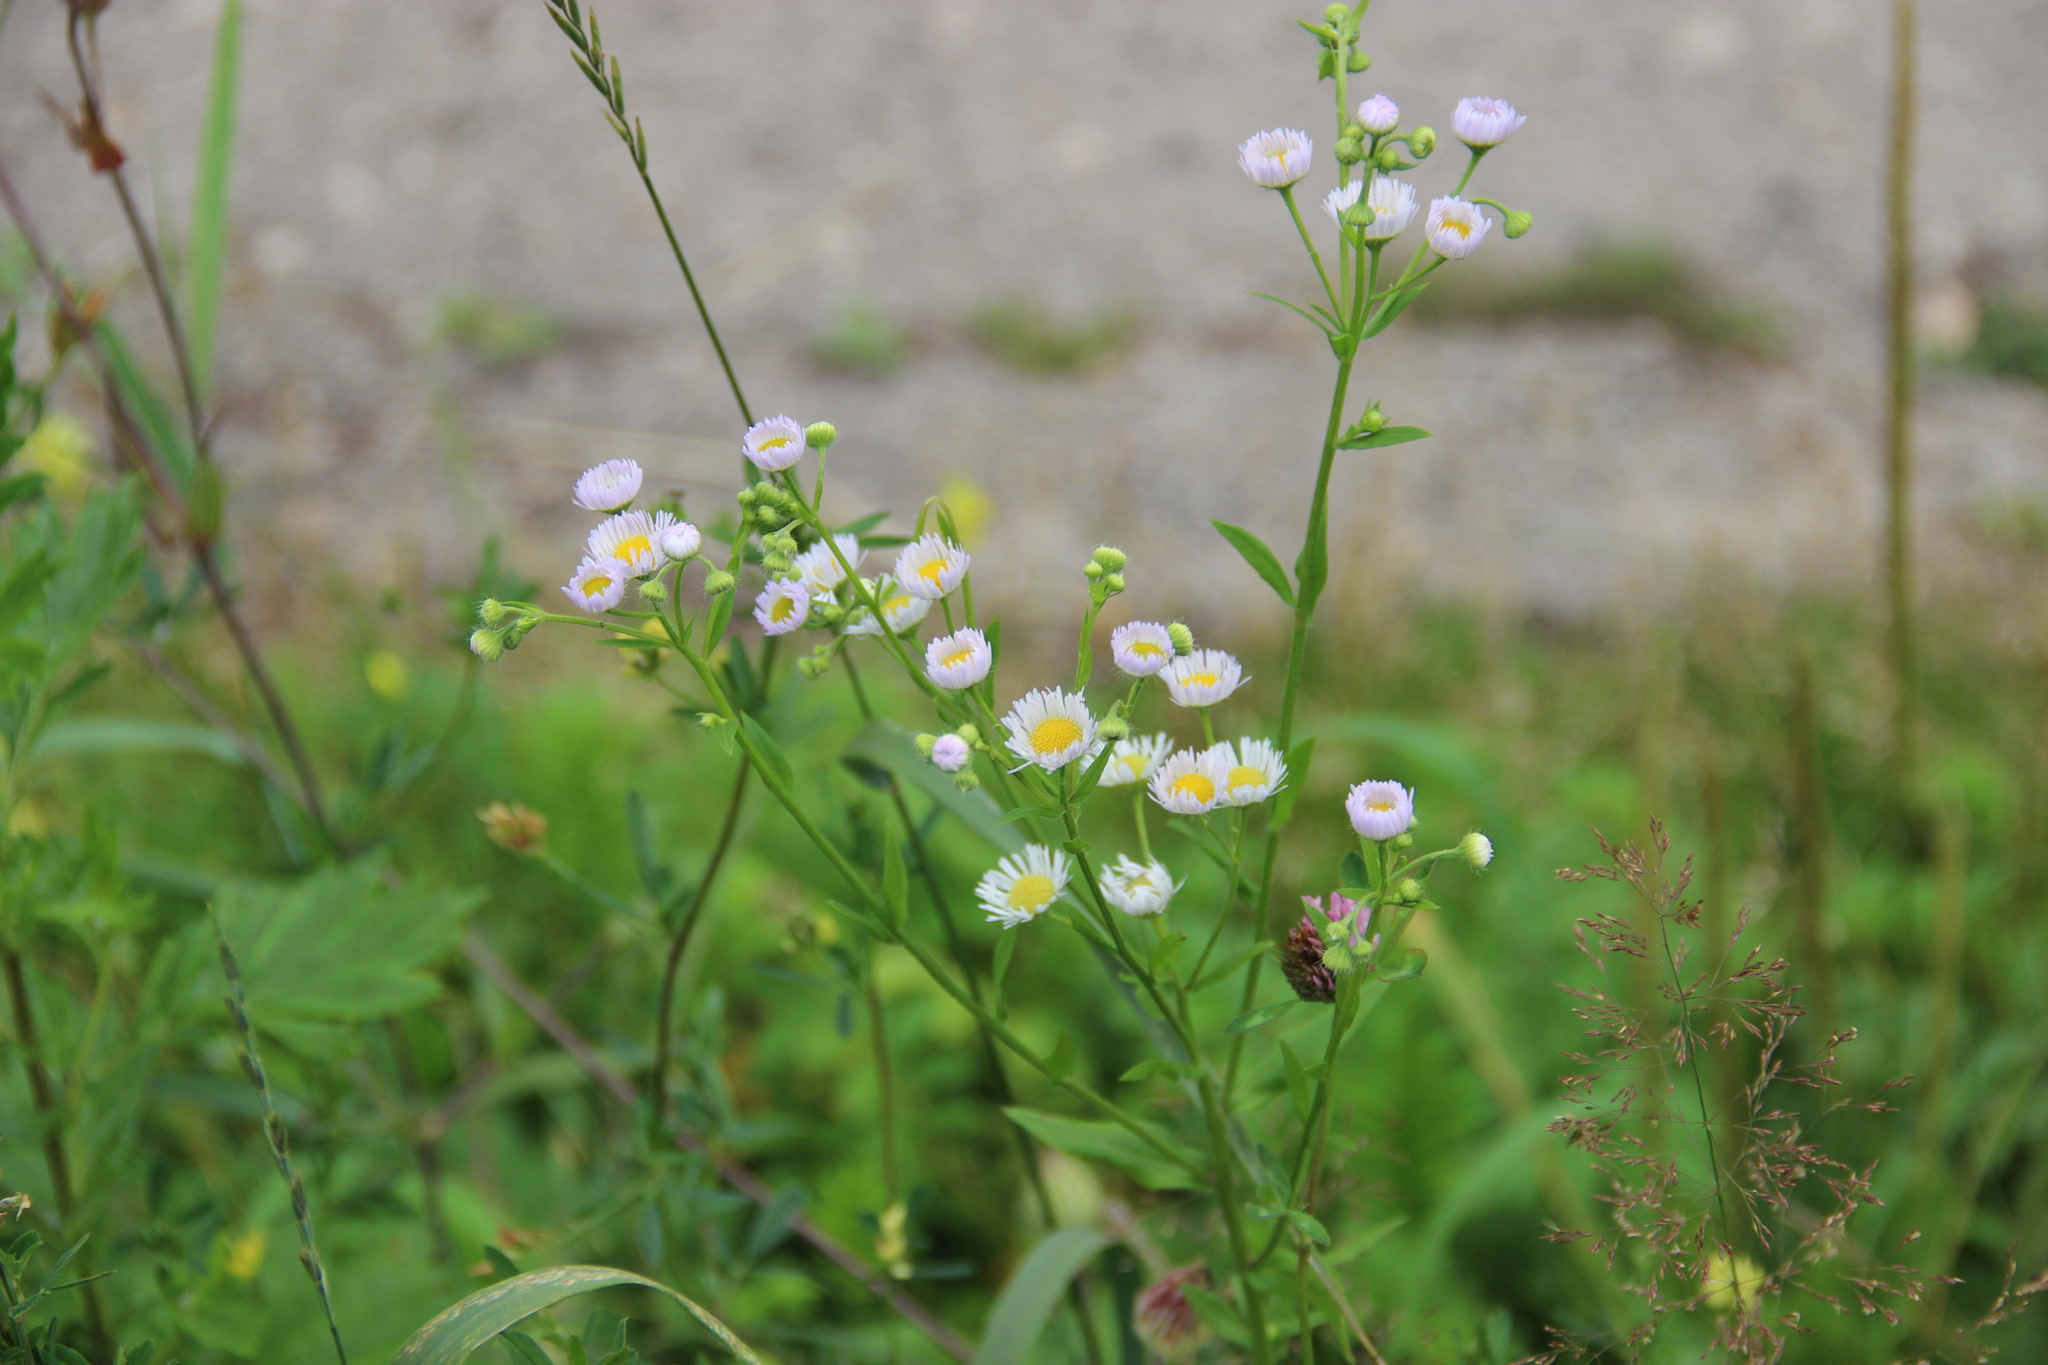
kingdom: Plantae
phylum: Tracheophyta
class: Magnoliopsida
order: Asterales
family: Asteraceae
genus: Erigeron
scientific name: Erigeron annuus
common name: Tall fleabane
